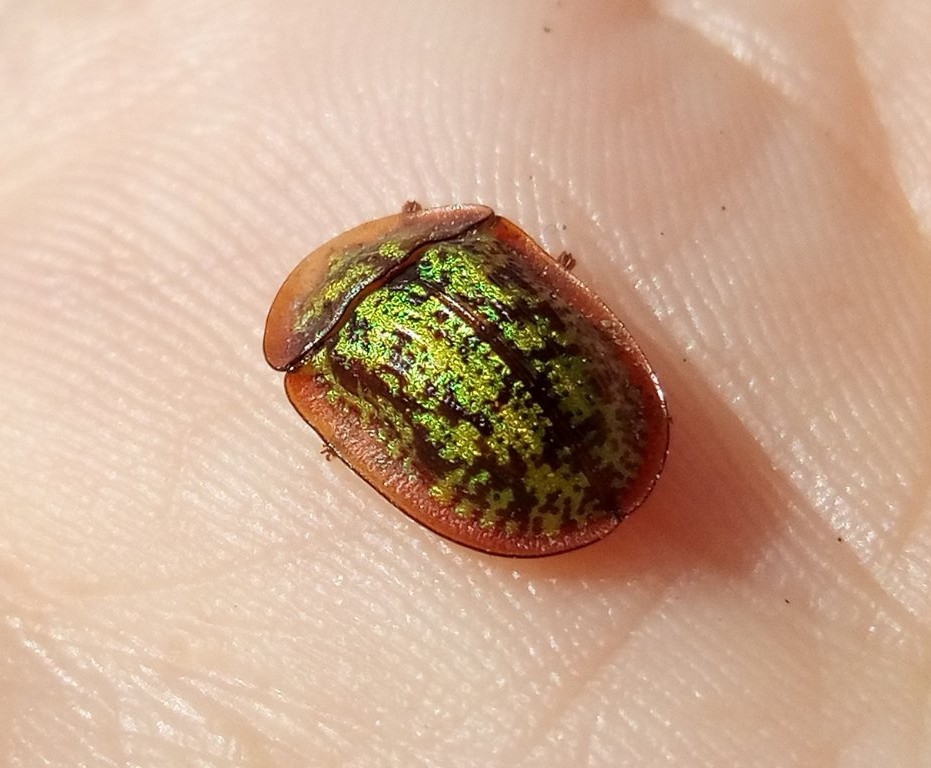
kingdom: Animalia
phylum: Arthropoda
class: Insecta
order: Coleoptera
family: Chrysomelidae
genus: Cassida
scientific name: Cassida canaliculata
